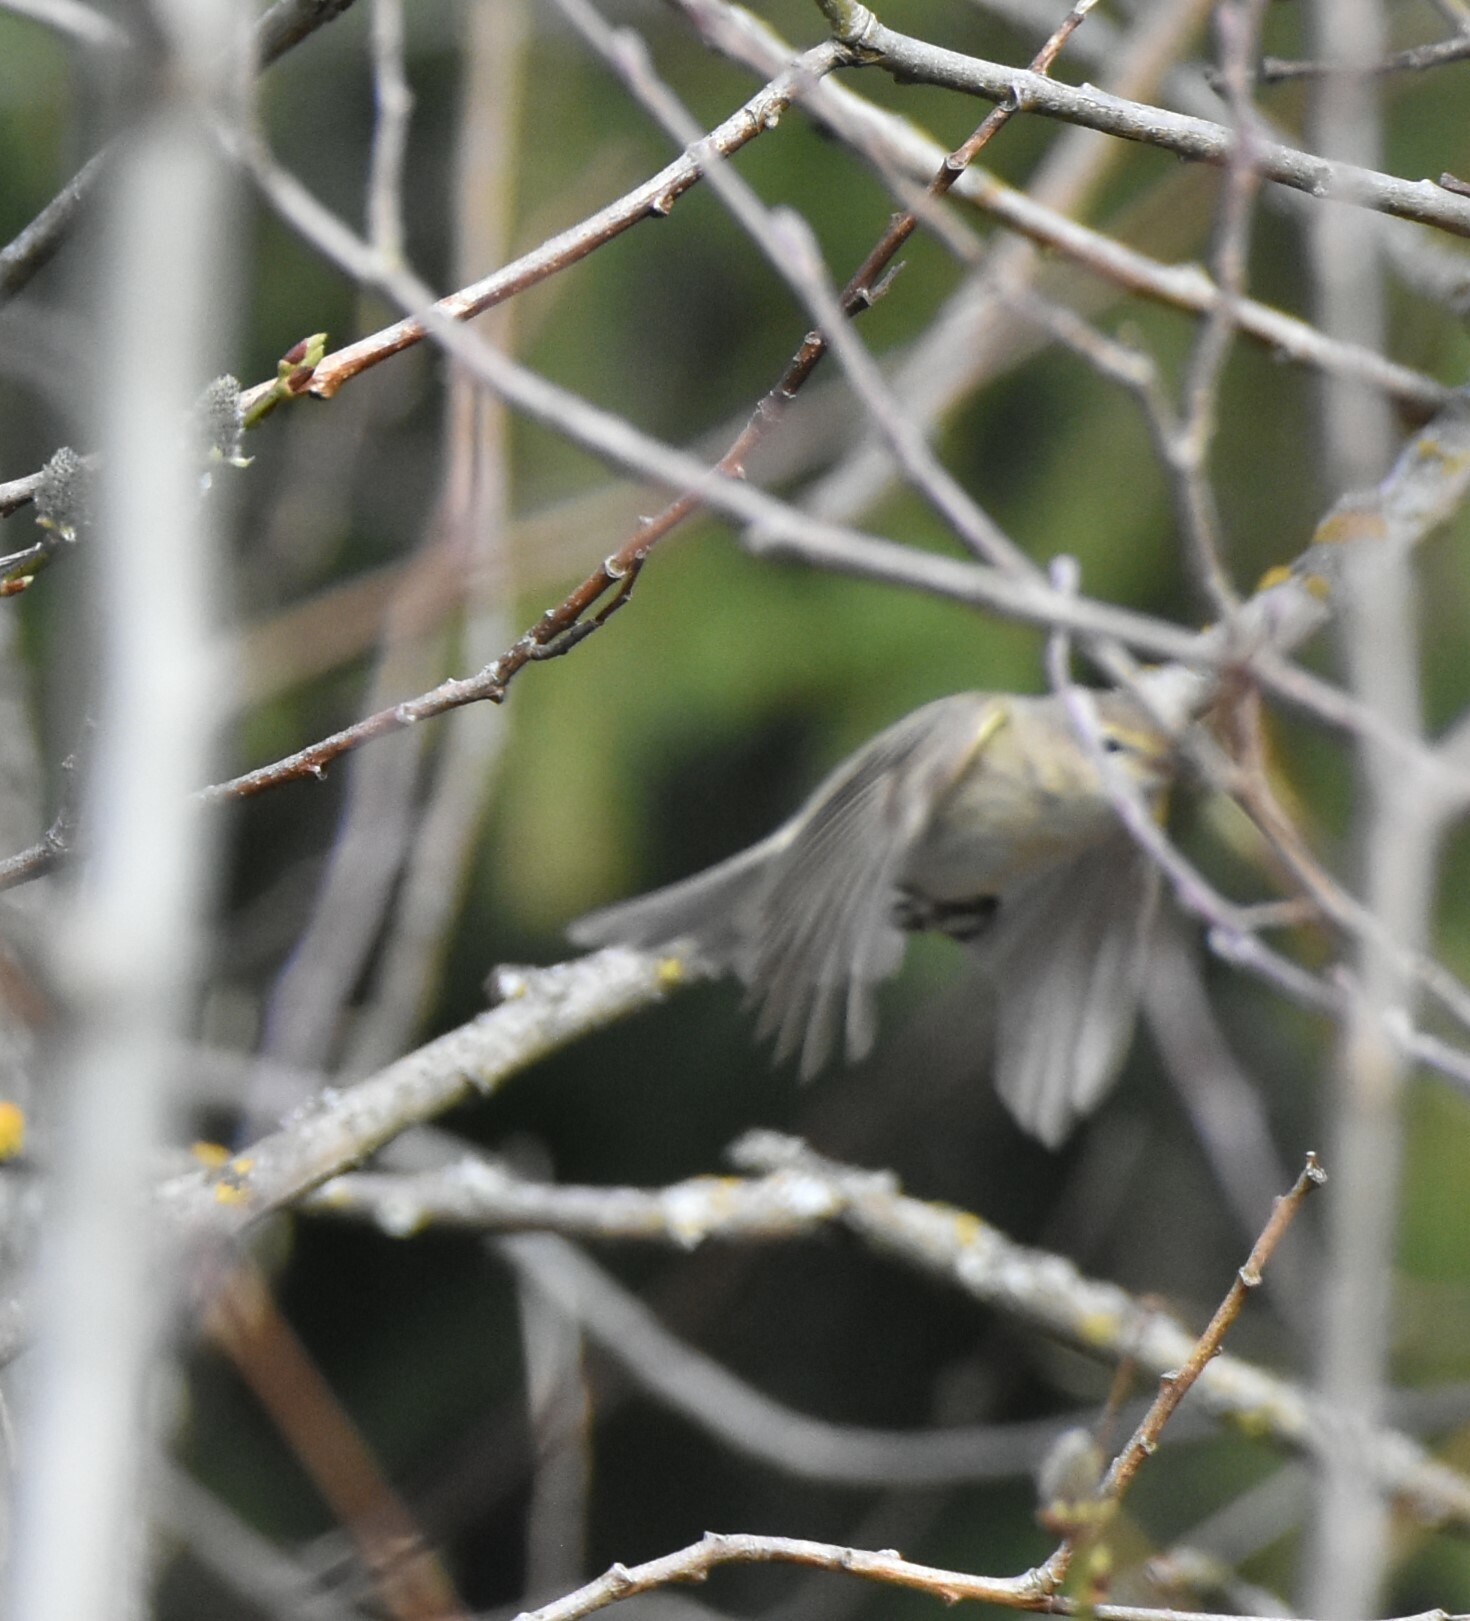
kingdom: Animalia
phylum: Chordata
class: Aves
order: Passeriformes
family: Phylloscopidae
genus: Phylloscopus
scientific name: Phylloscopus collybita
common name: Common chiffchaff
